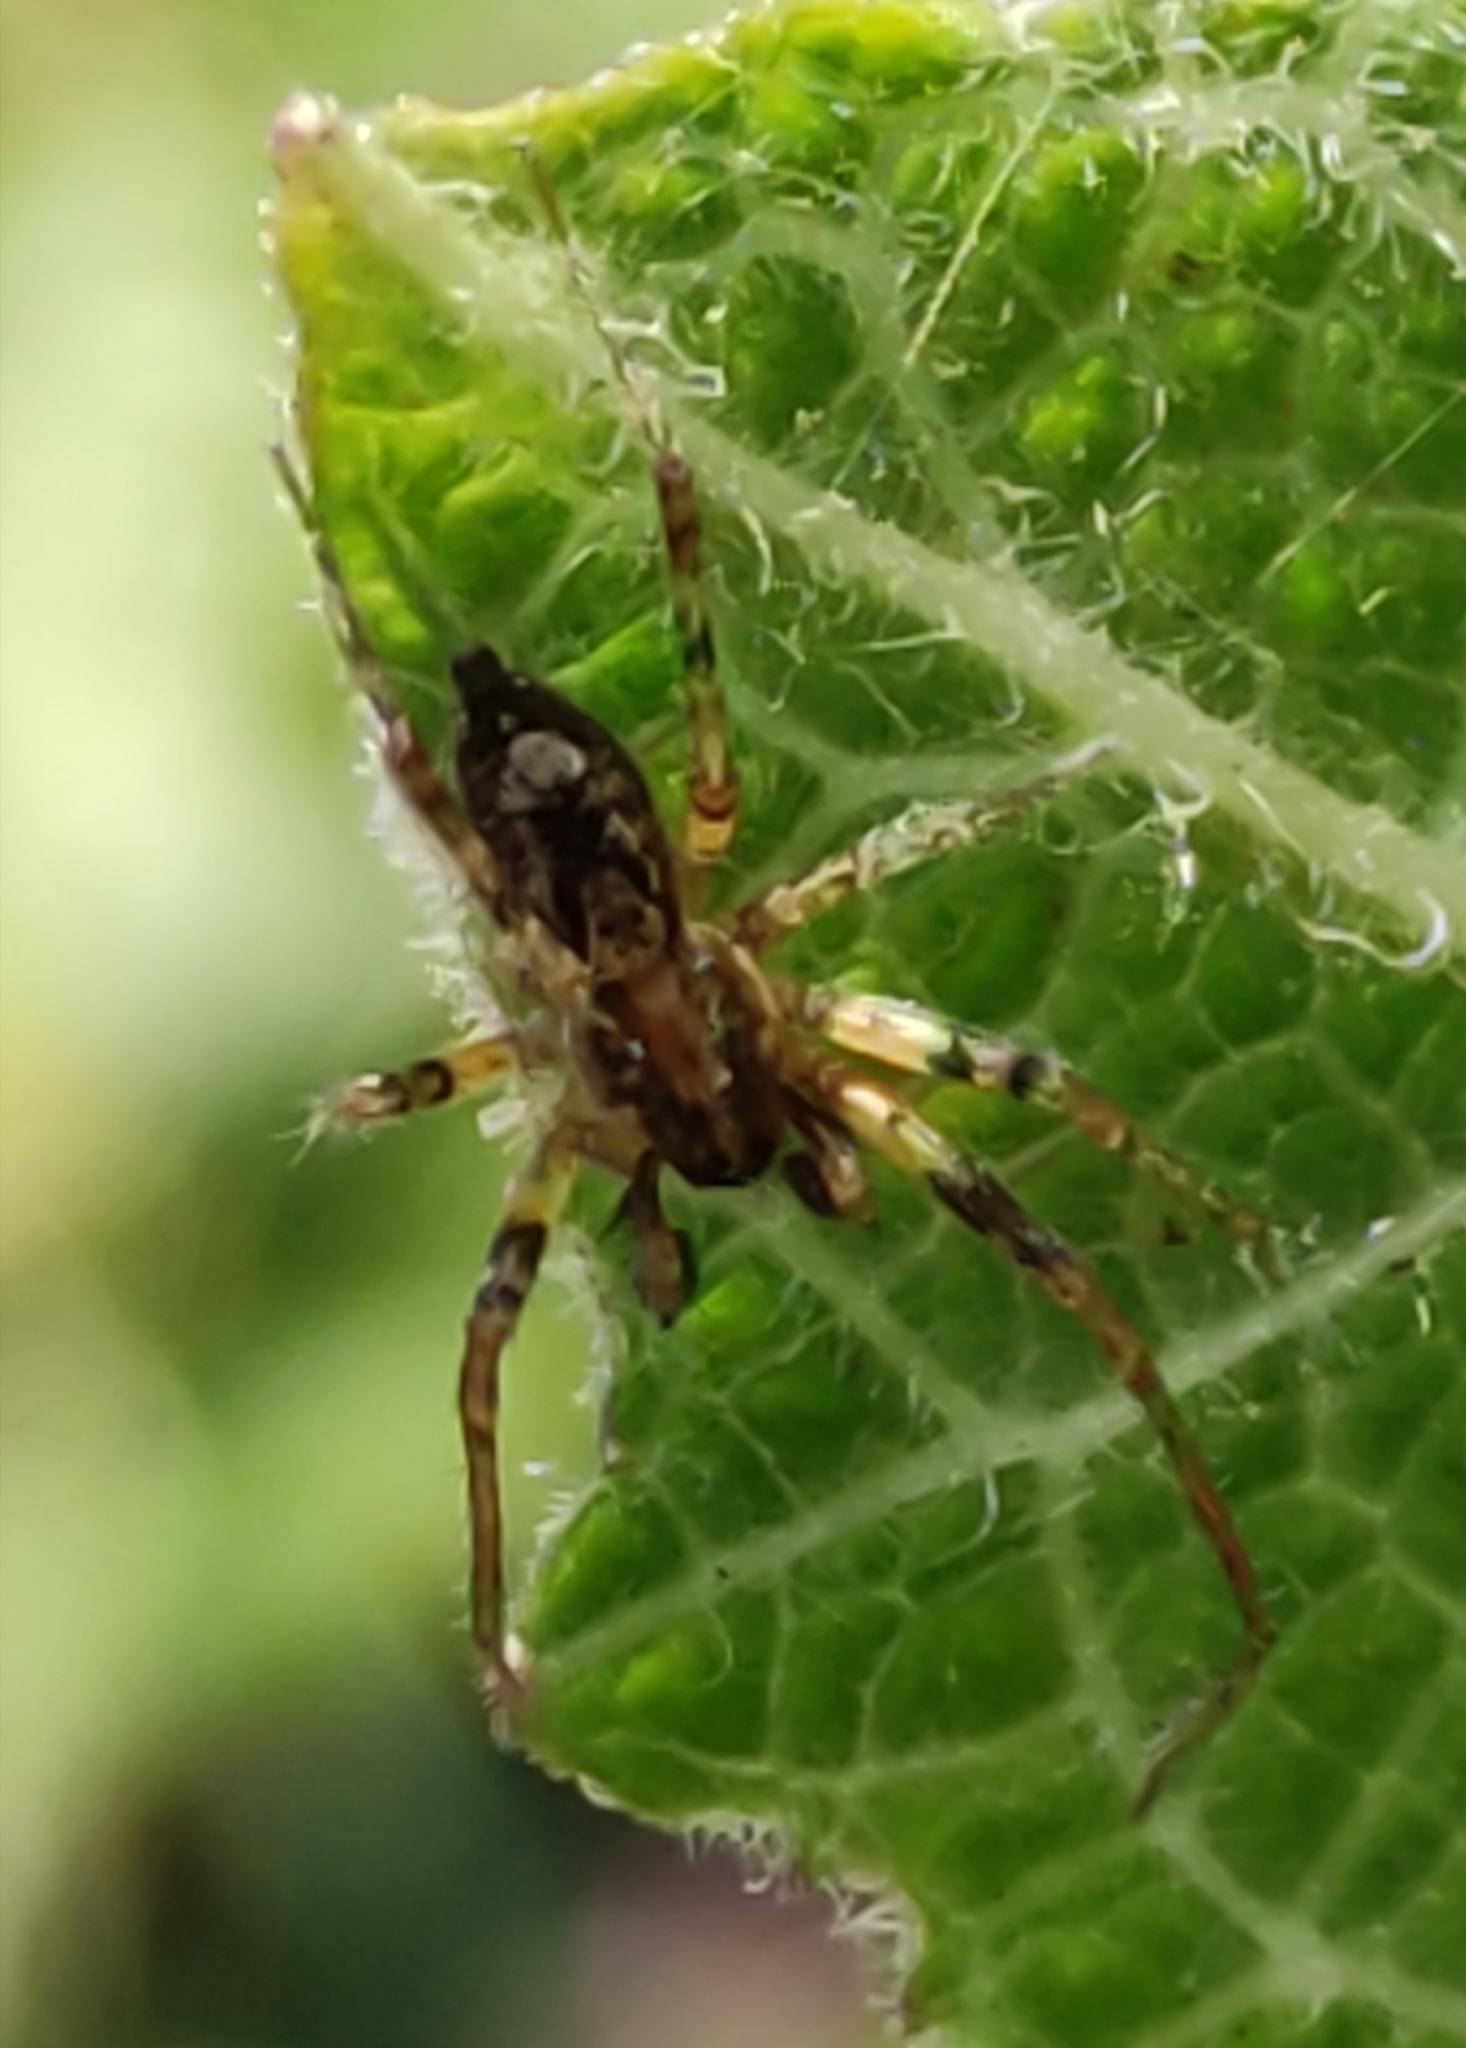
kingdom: Animalia
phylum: Arthropoda
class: Arachnida
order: Araneae
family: Anyphaenidae
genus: Anyphaena
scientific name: Anyphaena accentuata
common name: Buzzing spider
